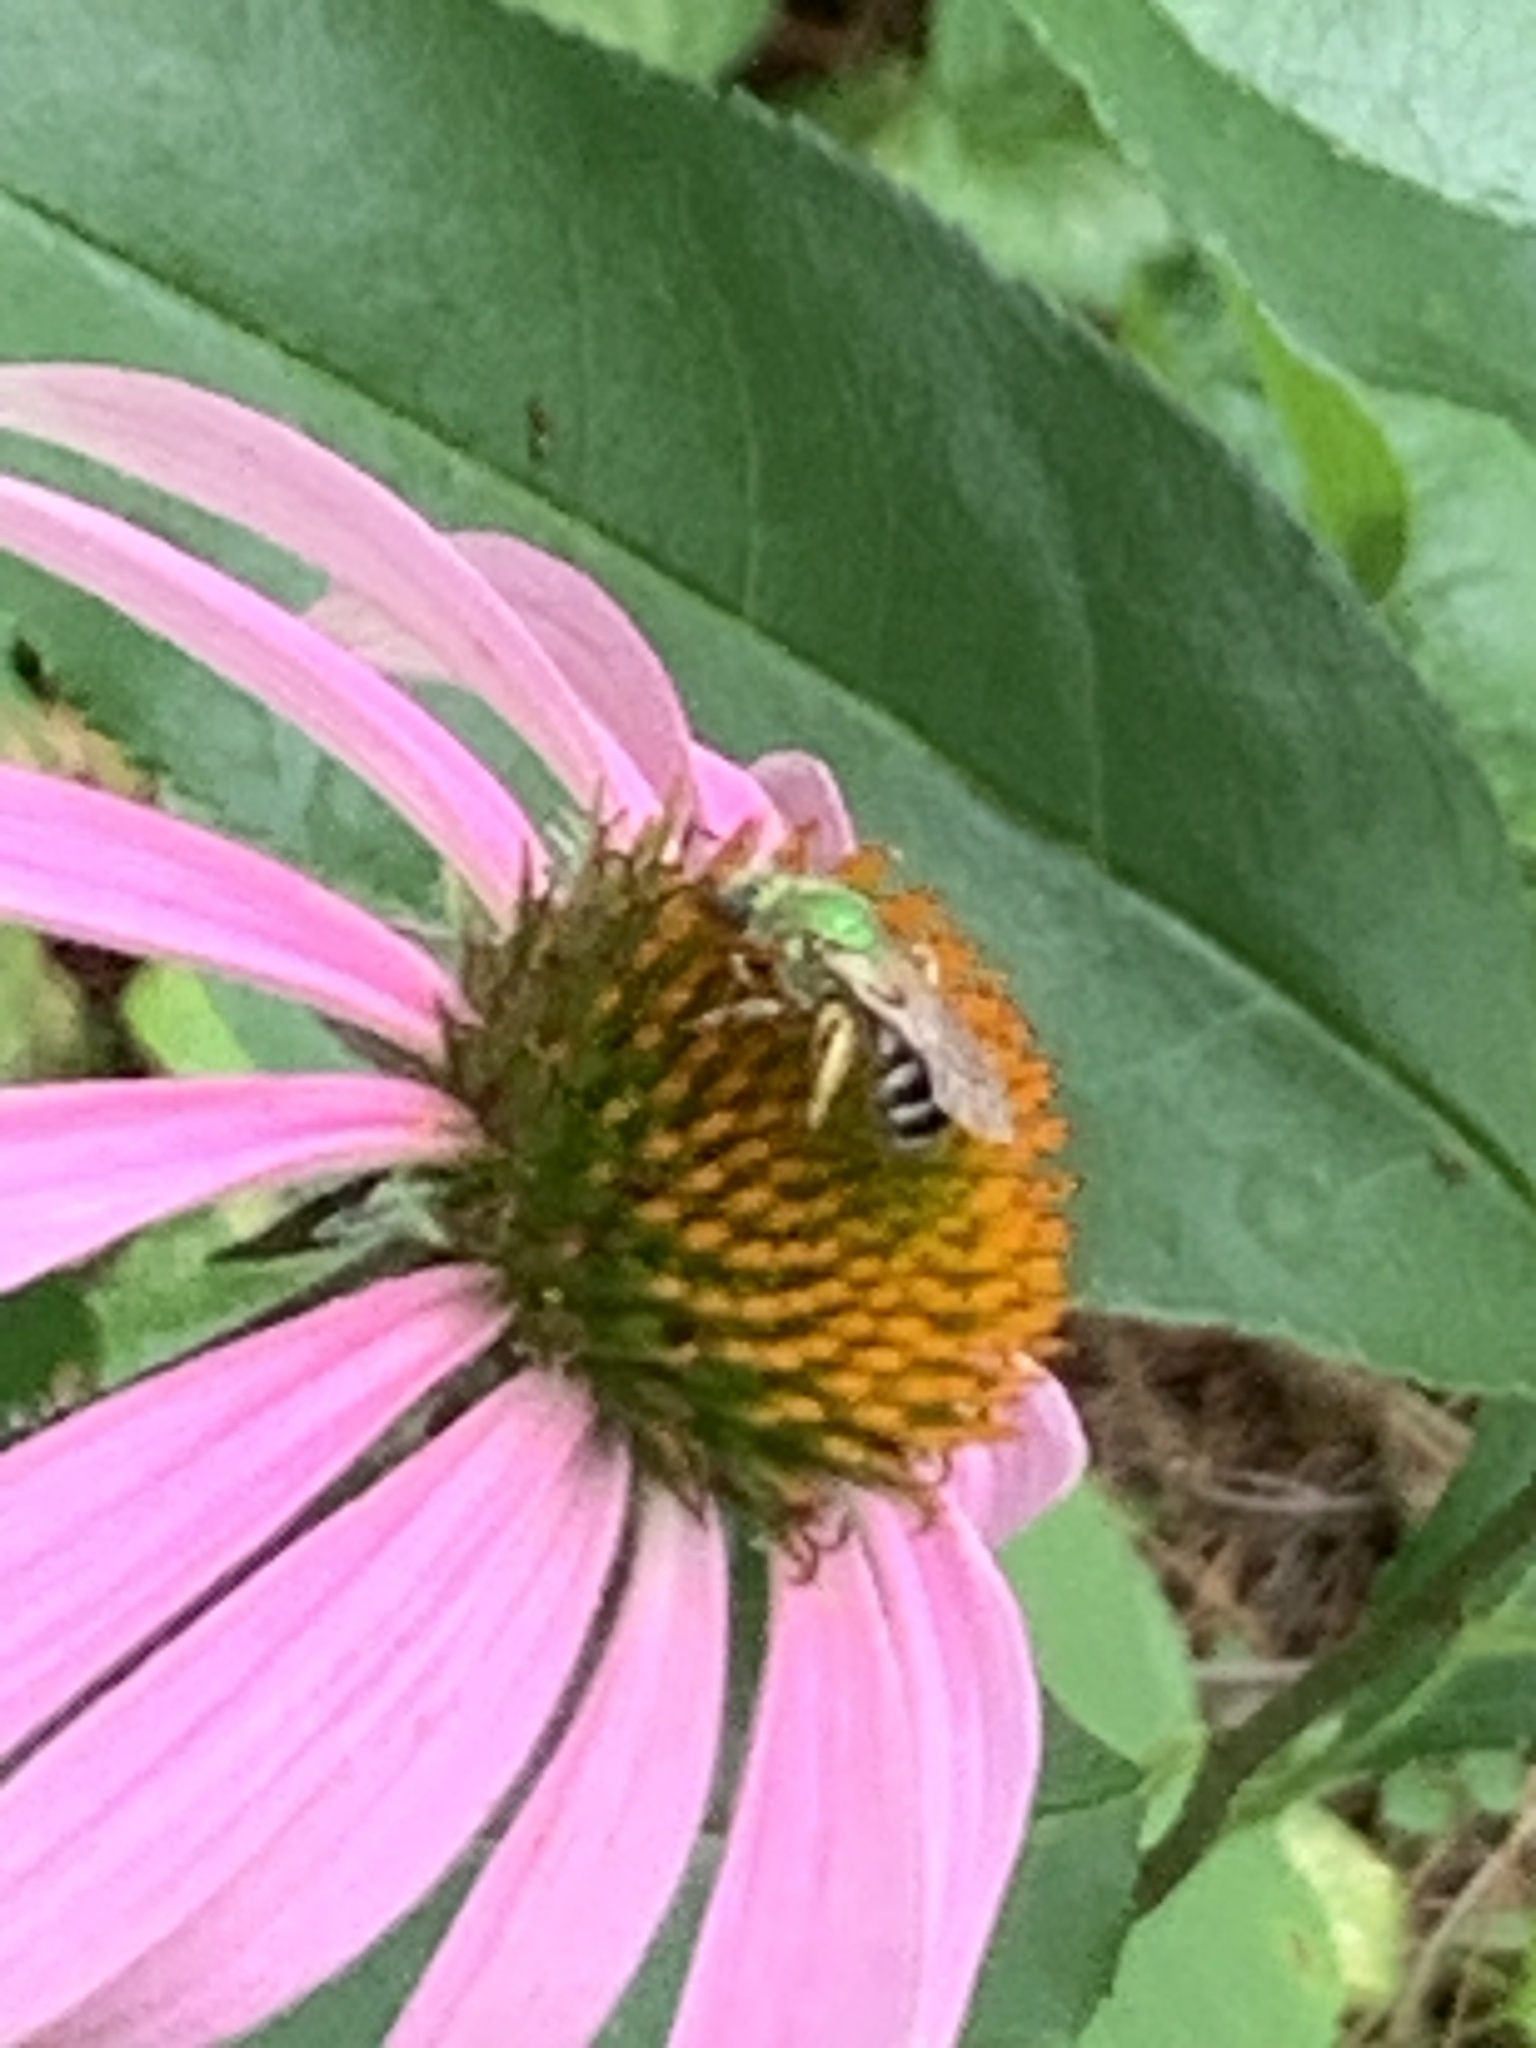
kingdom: Animalia
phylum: Arthropoda
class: Insecta
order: Hymenoptera
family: Halictidae
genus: Agapostemon
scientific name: Agapostemon virescens
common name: Bicolored striped sweat bee
